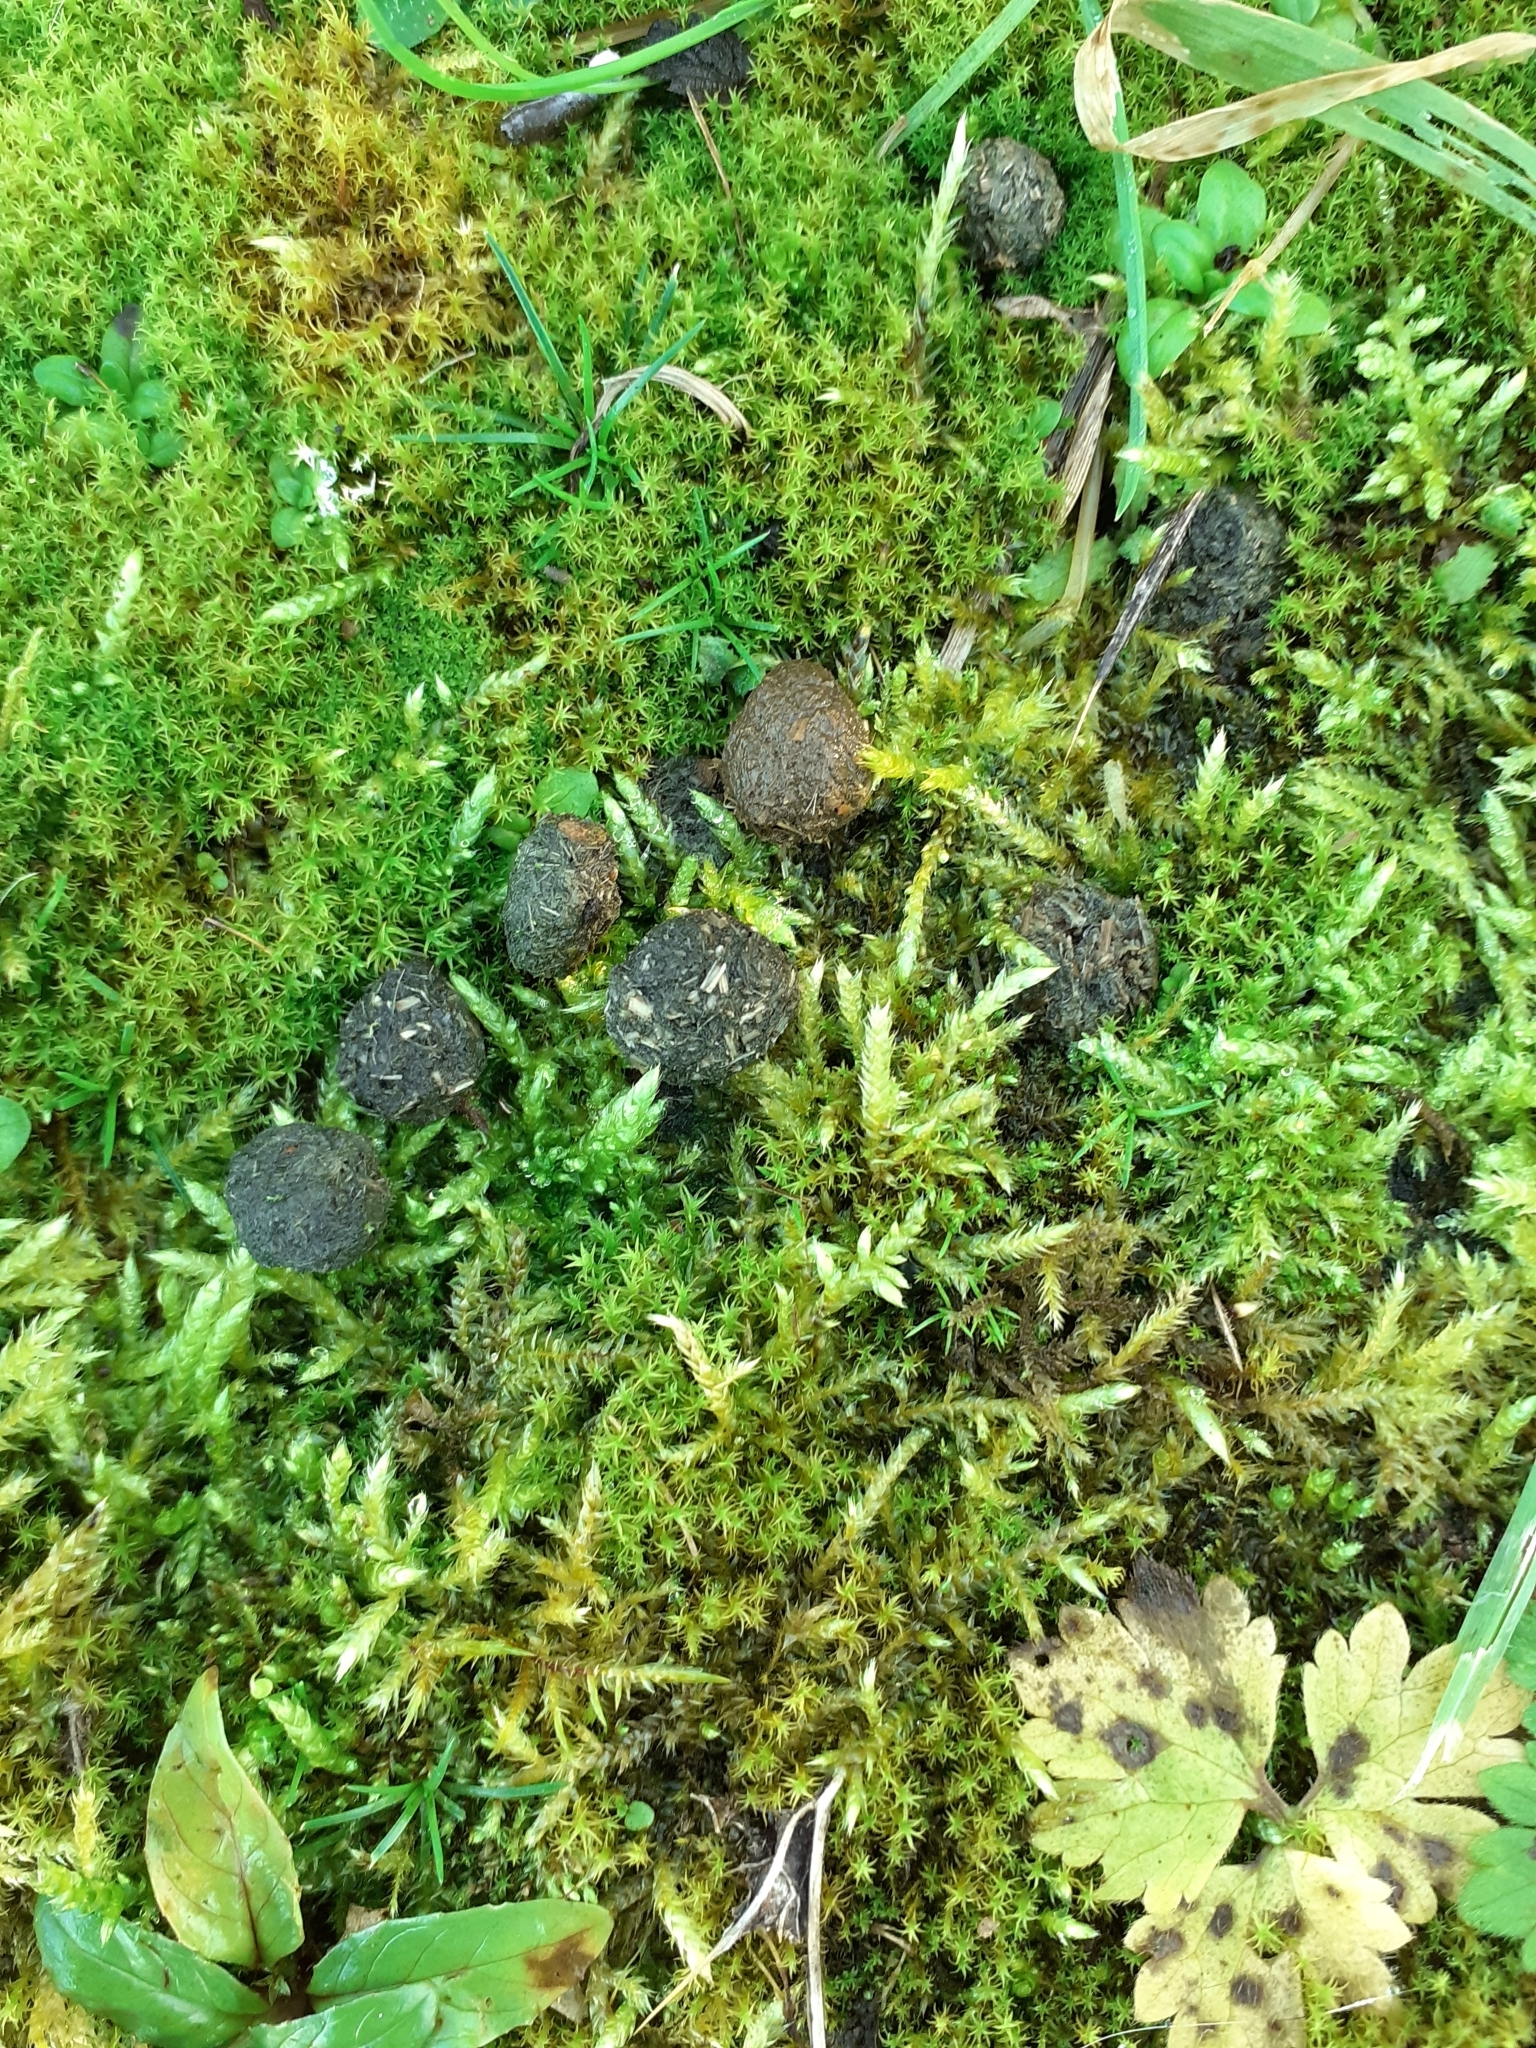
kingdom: Animalia
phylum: Chordata
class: Mammalia
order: Lagomorpha
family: Leporidae
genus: Oryctolagus
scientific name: Oryctolagus cuniculus
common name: European rabbit
